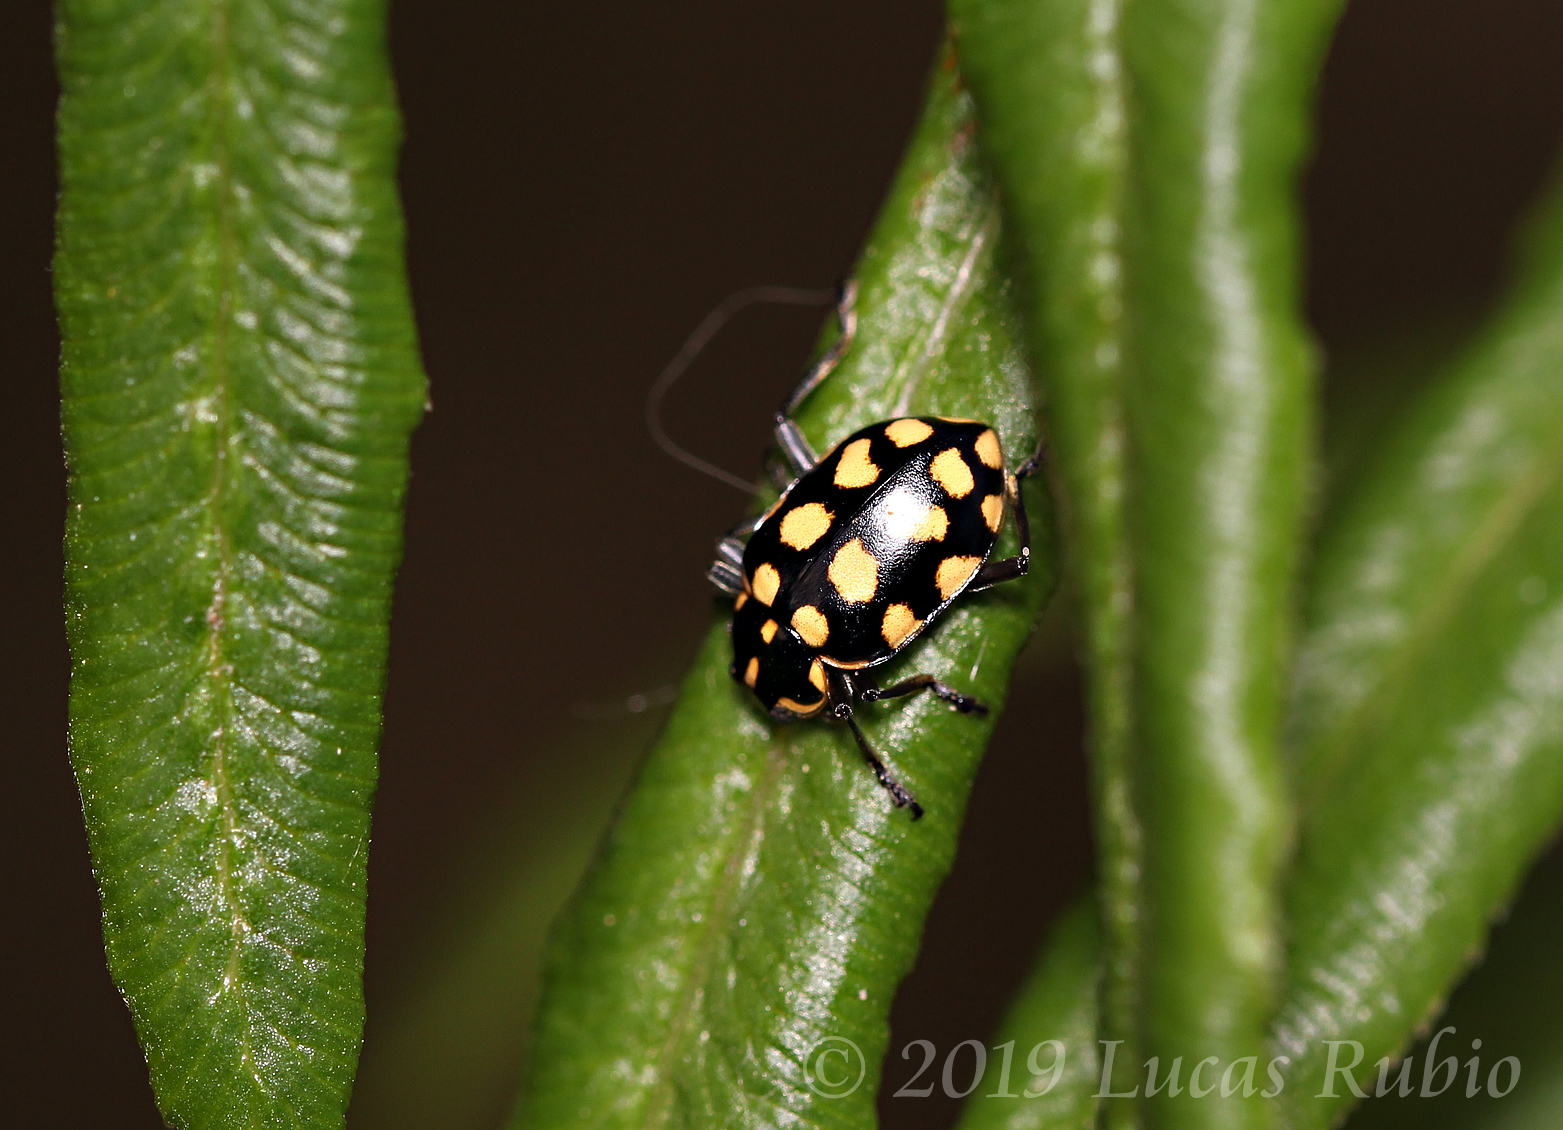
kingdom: Animalia
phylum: Arthropoda
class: Insecta
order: Coleoptera
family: Coccinellidae
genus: Coleomegilla
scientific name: Coleomegilla
